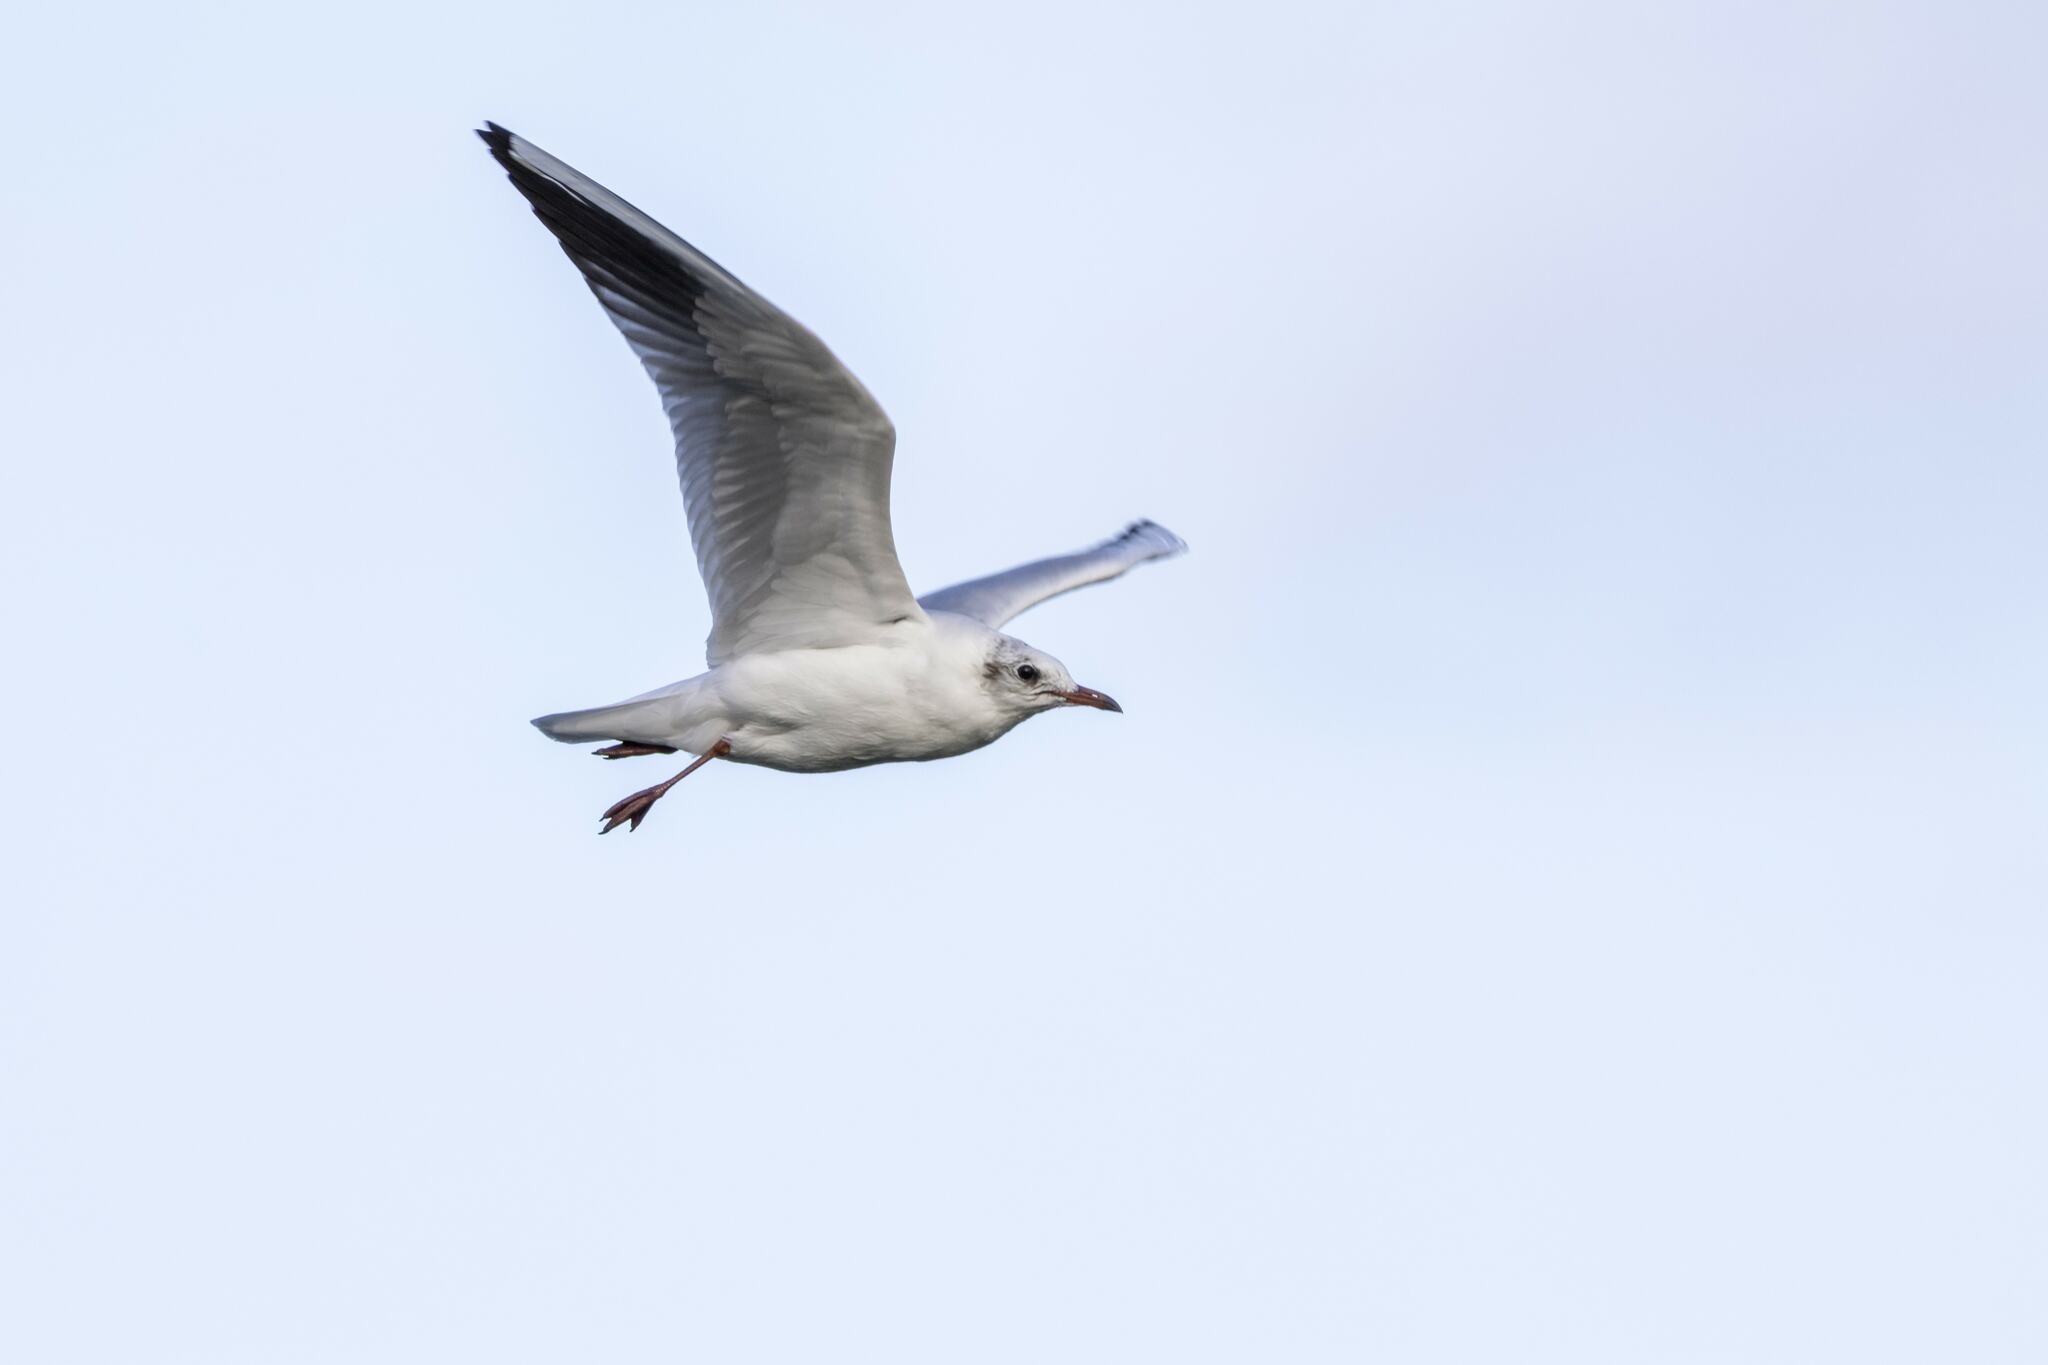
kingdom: Animalia
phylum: Chordata
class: Aves
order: Charadriiformes
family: Laridae
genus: Chroicocephalus
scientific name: Chroicocephalus ridibundus
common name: Black-headed gull
